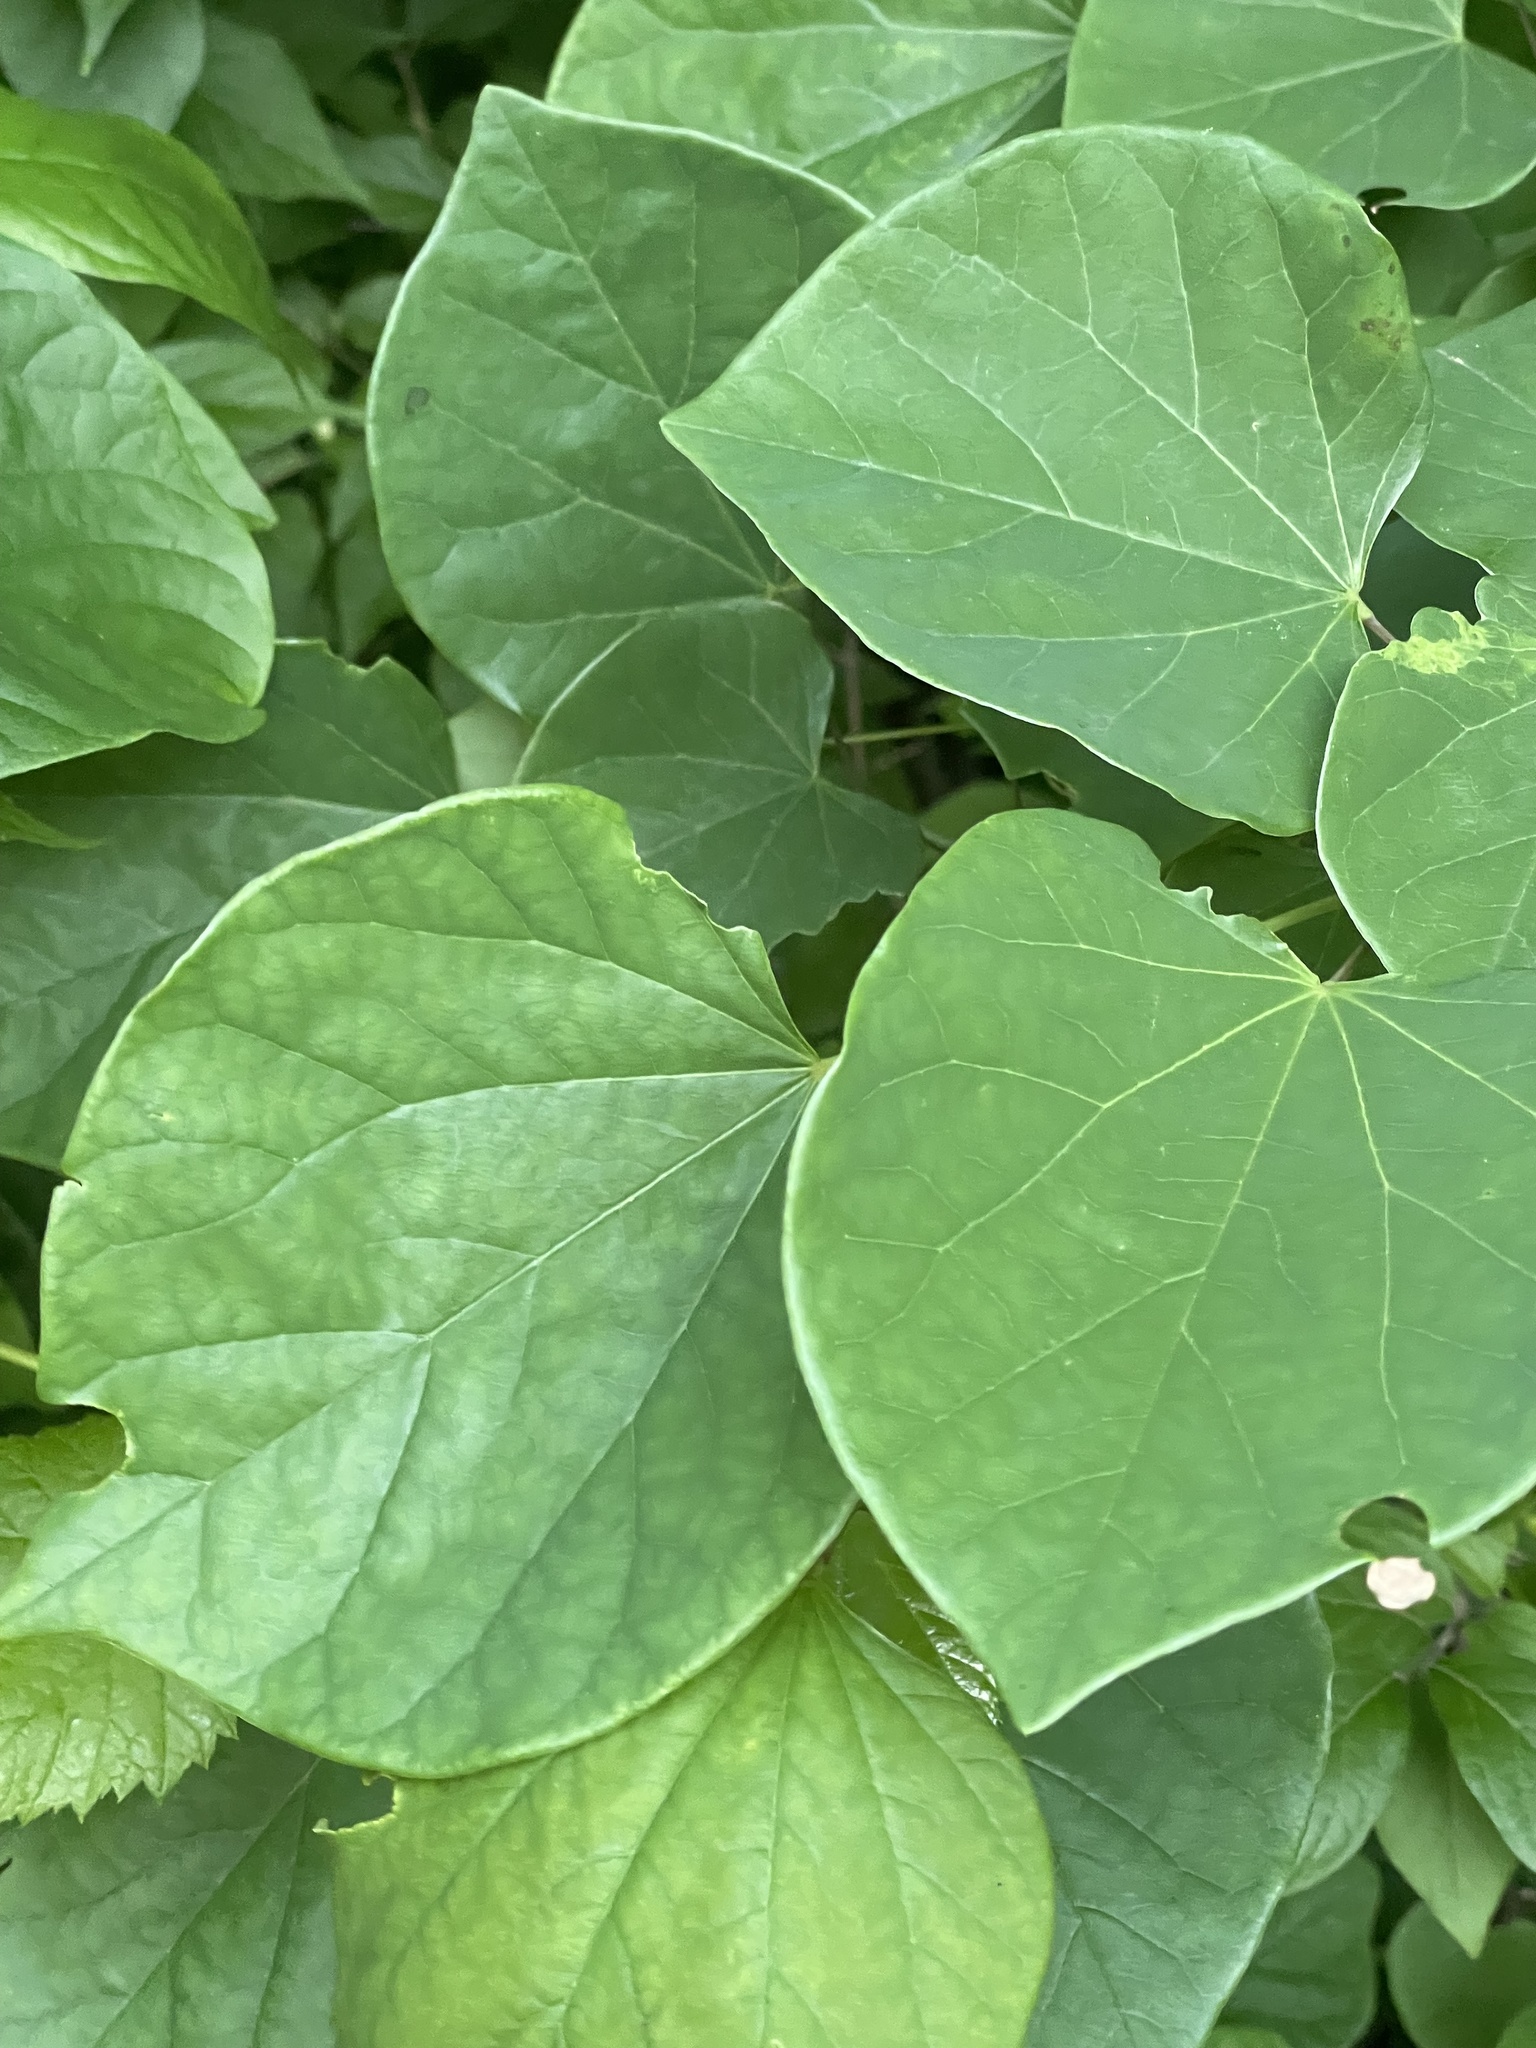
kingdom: Plantae
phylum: Tracheophyta
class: Magnoliopsida
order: Fabales
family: Fabaceae
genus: Cercis
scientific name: Cercis canadensis
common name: Eastern redbud
